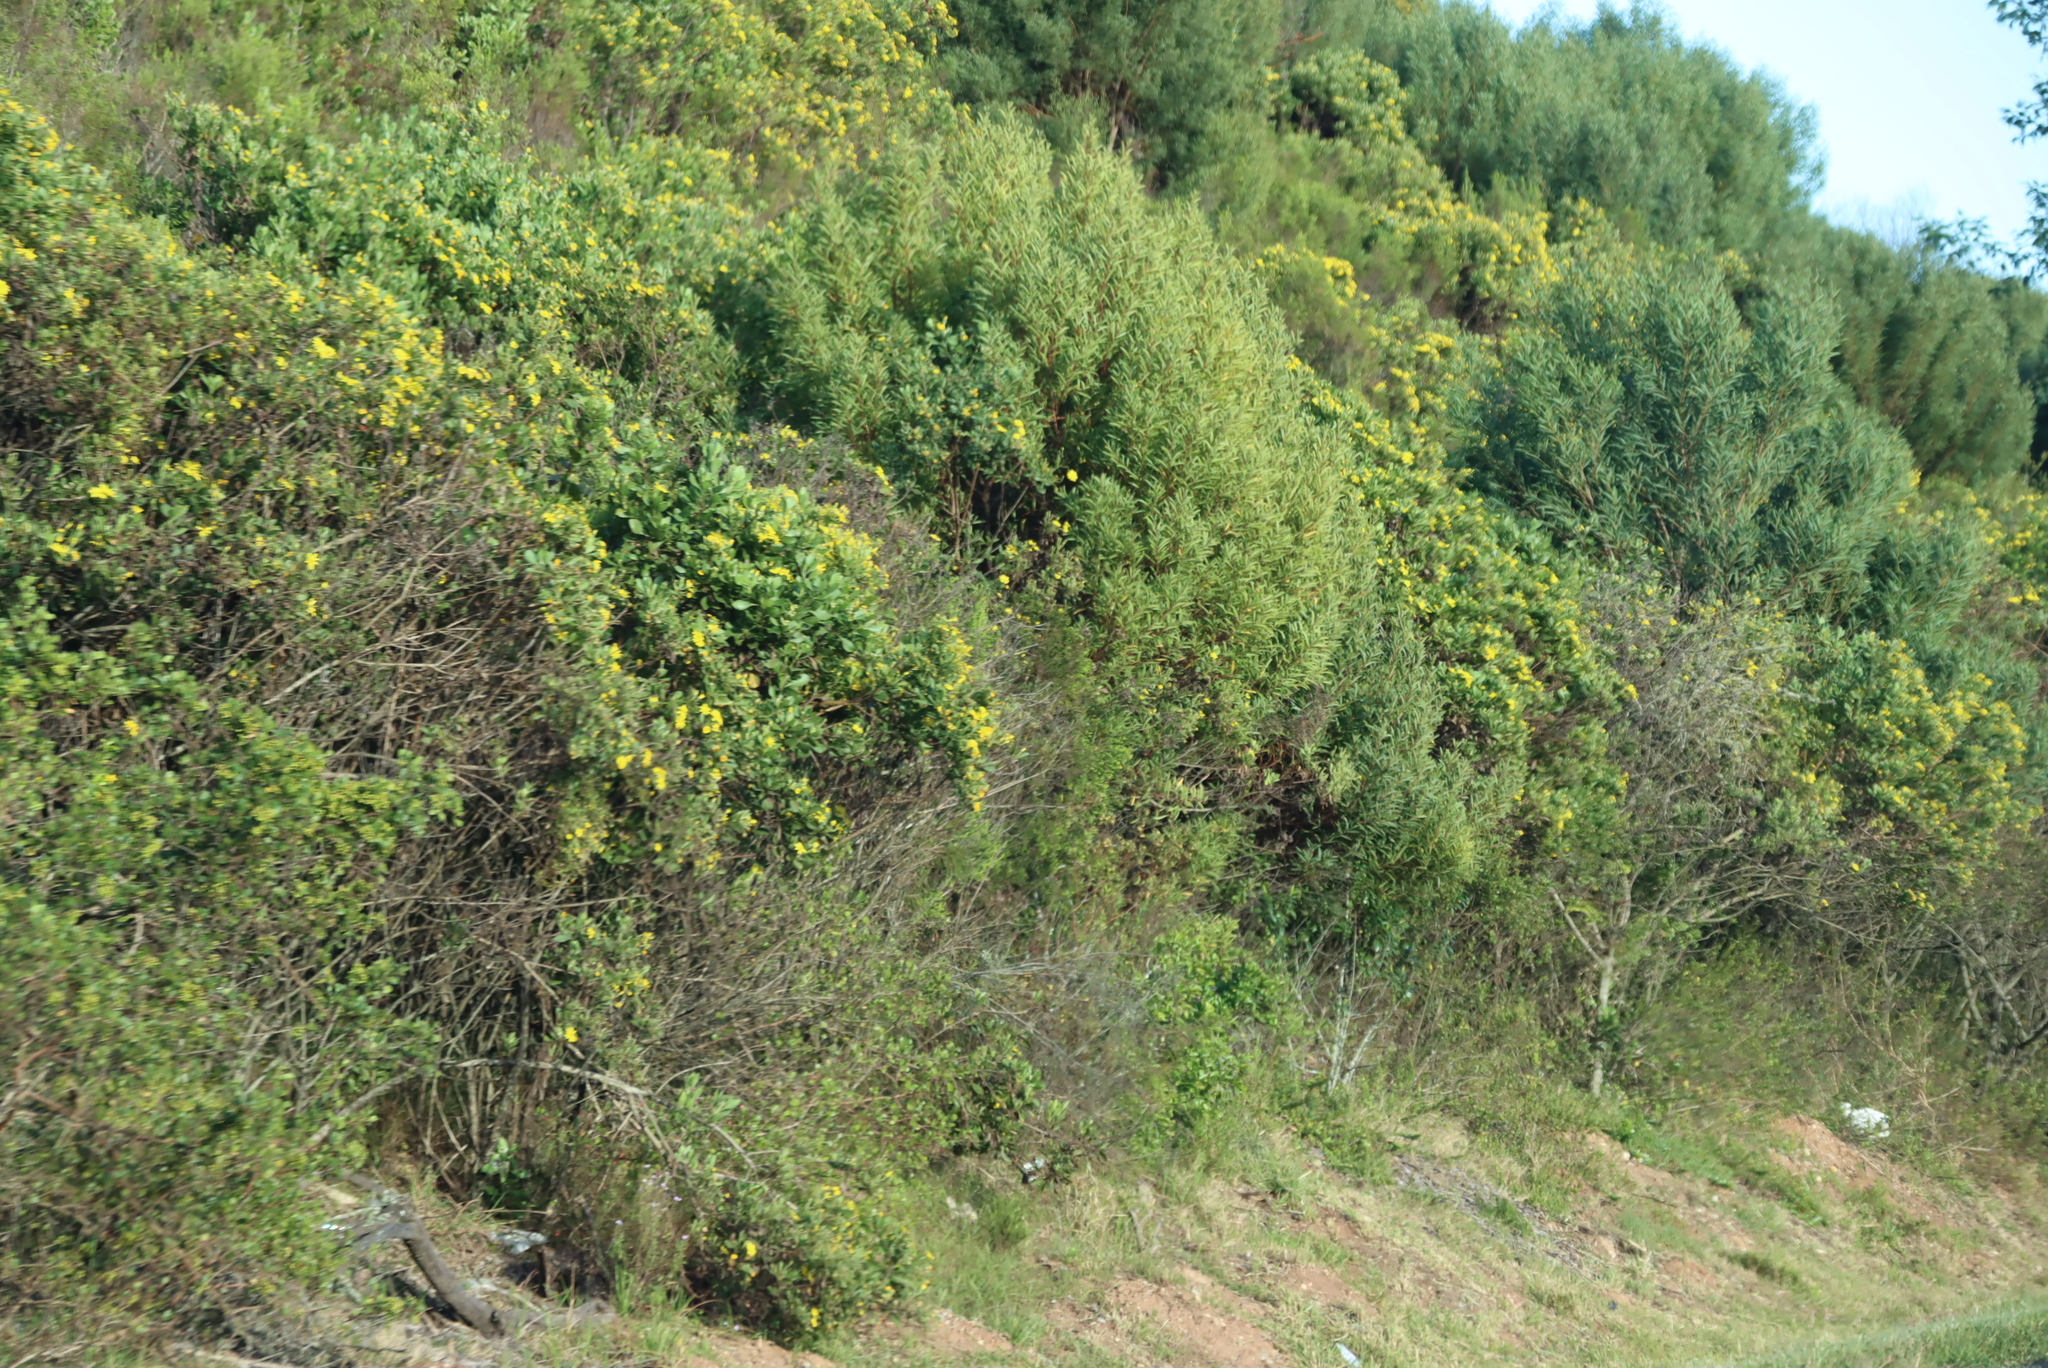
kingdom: Plantae
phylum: Tracheophyta
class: Magnoliopsida
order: Fabales
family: Fabaceae
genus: Acacia
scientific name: Acacia cyclops
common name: Coastal wattle
